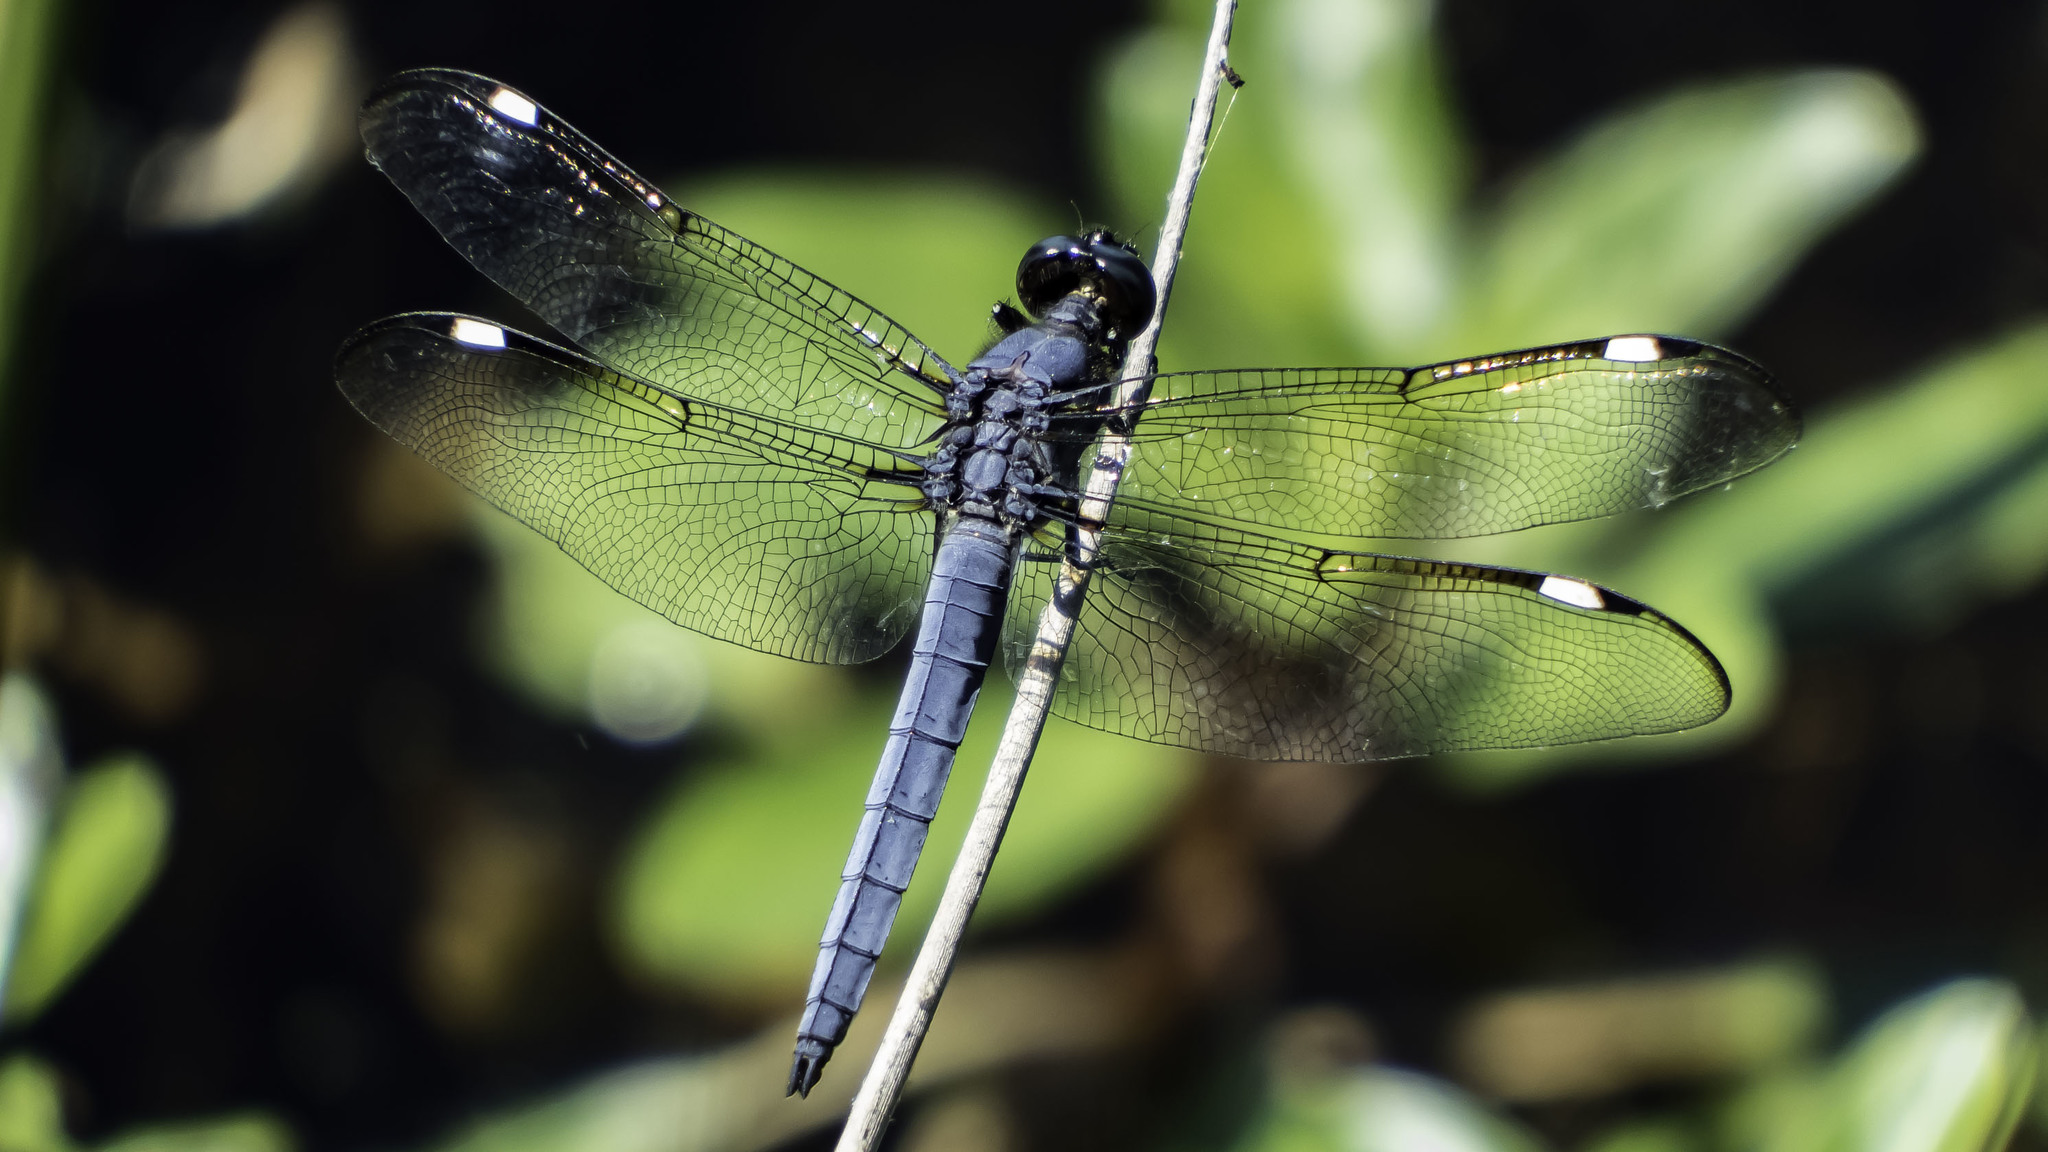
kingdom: Animalia
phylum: Arthropoda
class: Insecta
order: Odonata
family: Libellulidae
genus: Libellula
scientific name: Libellula cyanea
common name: Spangled skimmer
